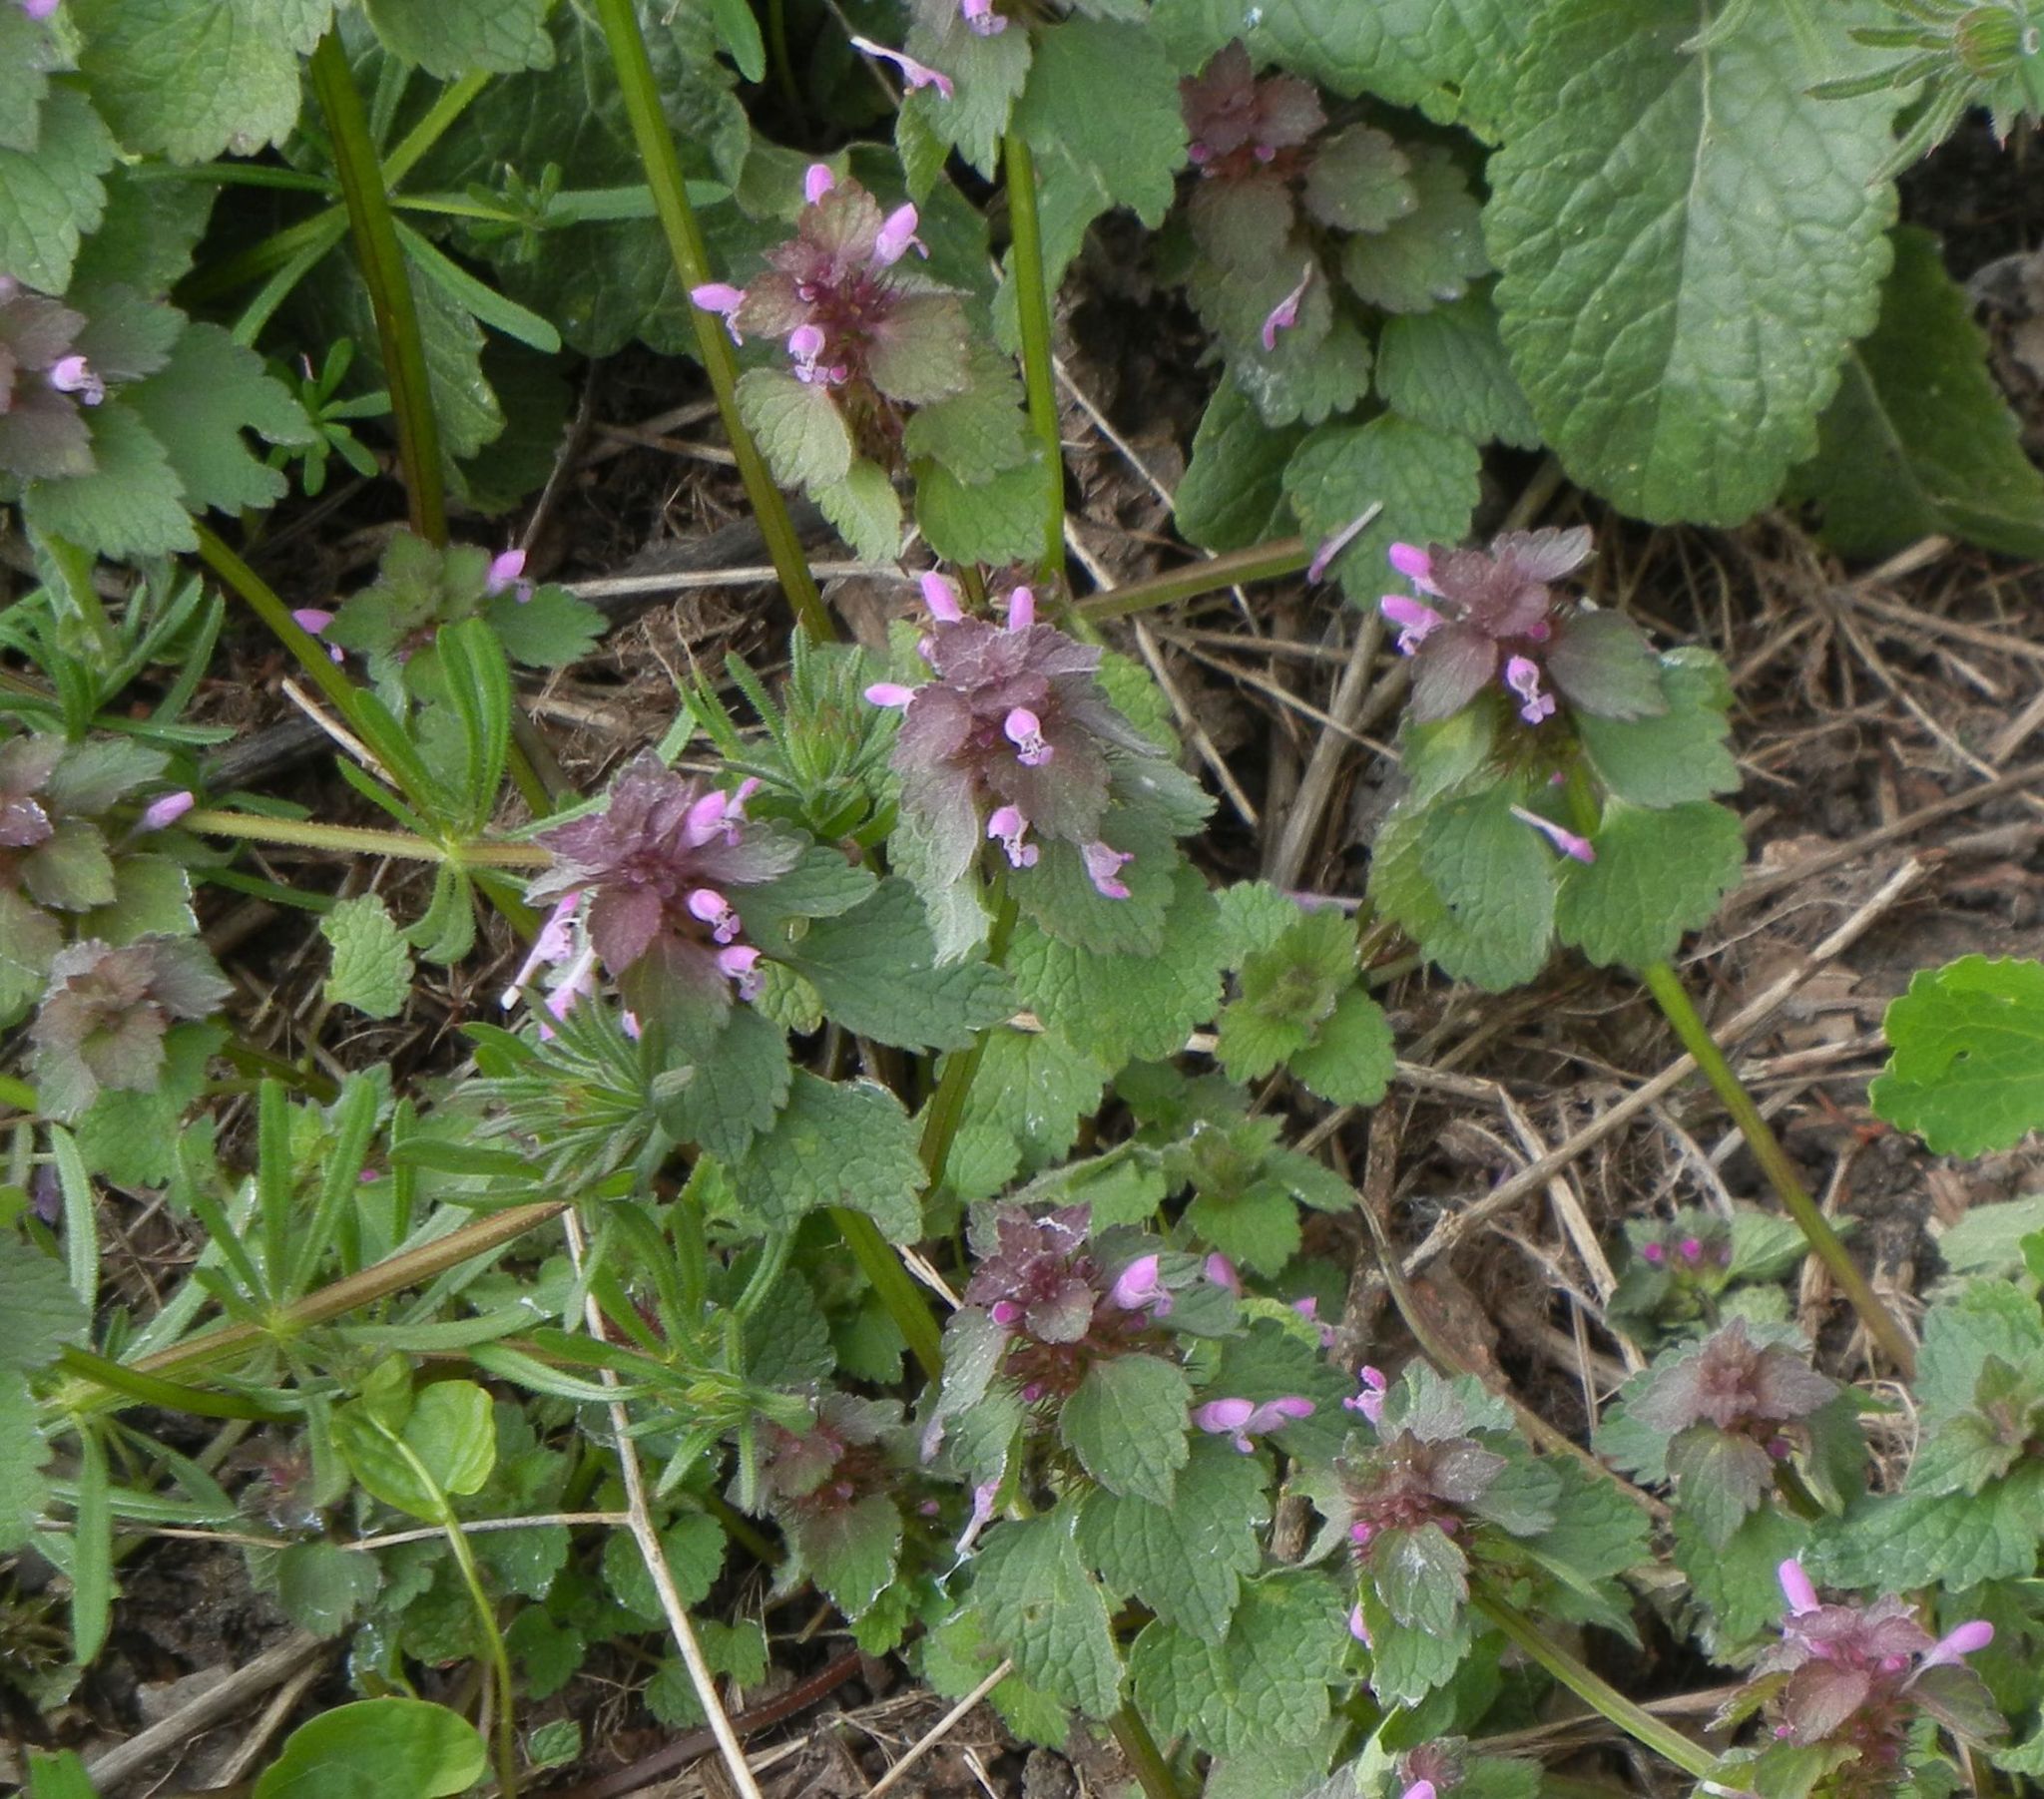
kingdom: Plantae
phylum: Tracheophyta
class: Magnoliopsida
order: Lamiales
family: Lamiaceae
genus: Lamium
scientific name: Lamium purpureum
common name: Red dead-nettle
